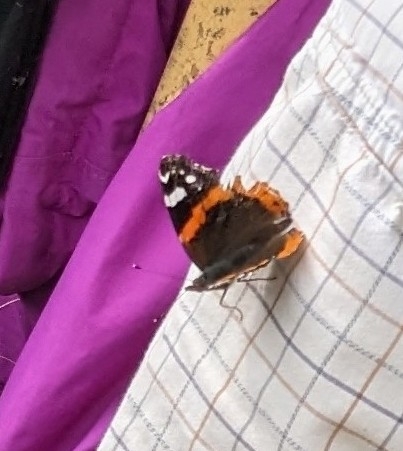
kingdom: Animalia
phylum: Arthropoda
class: Insecta
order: Lepidoptera
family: Nymphalidae
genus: Vanessa
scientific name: Vanessa atalanta
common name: Red admiral
